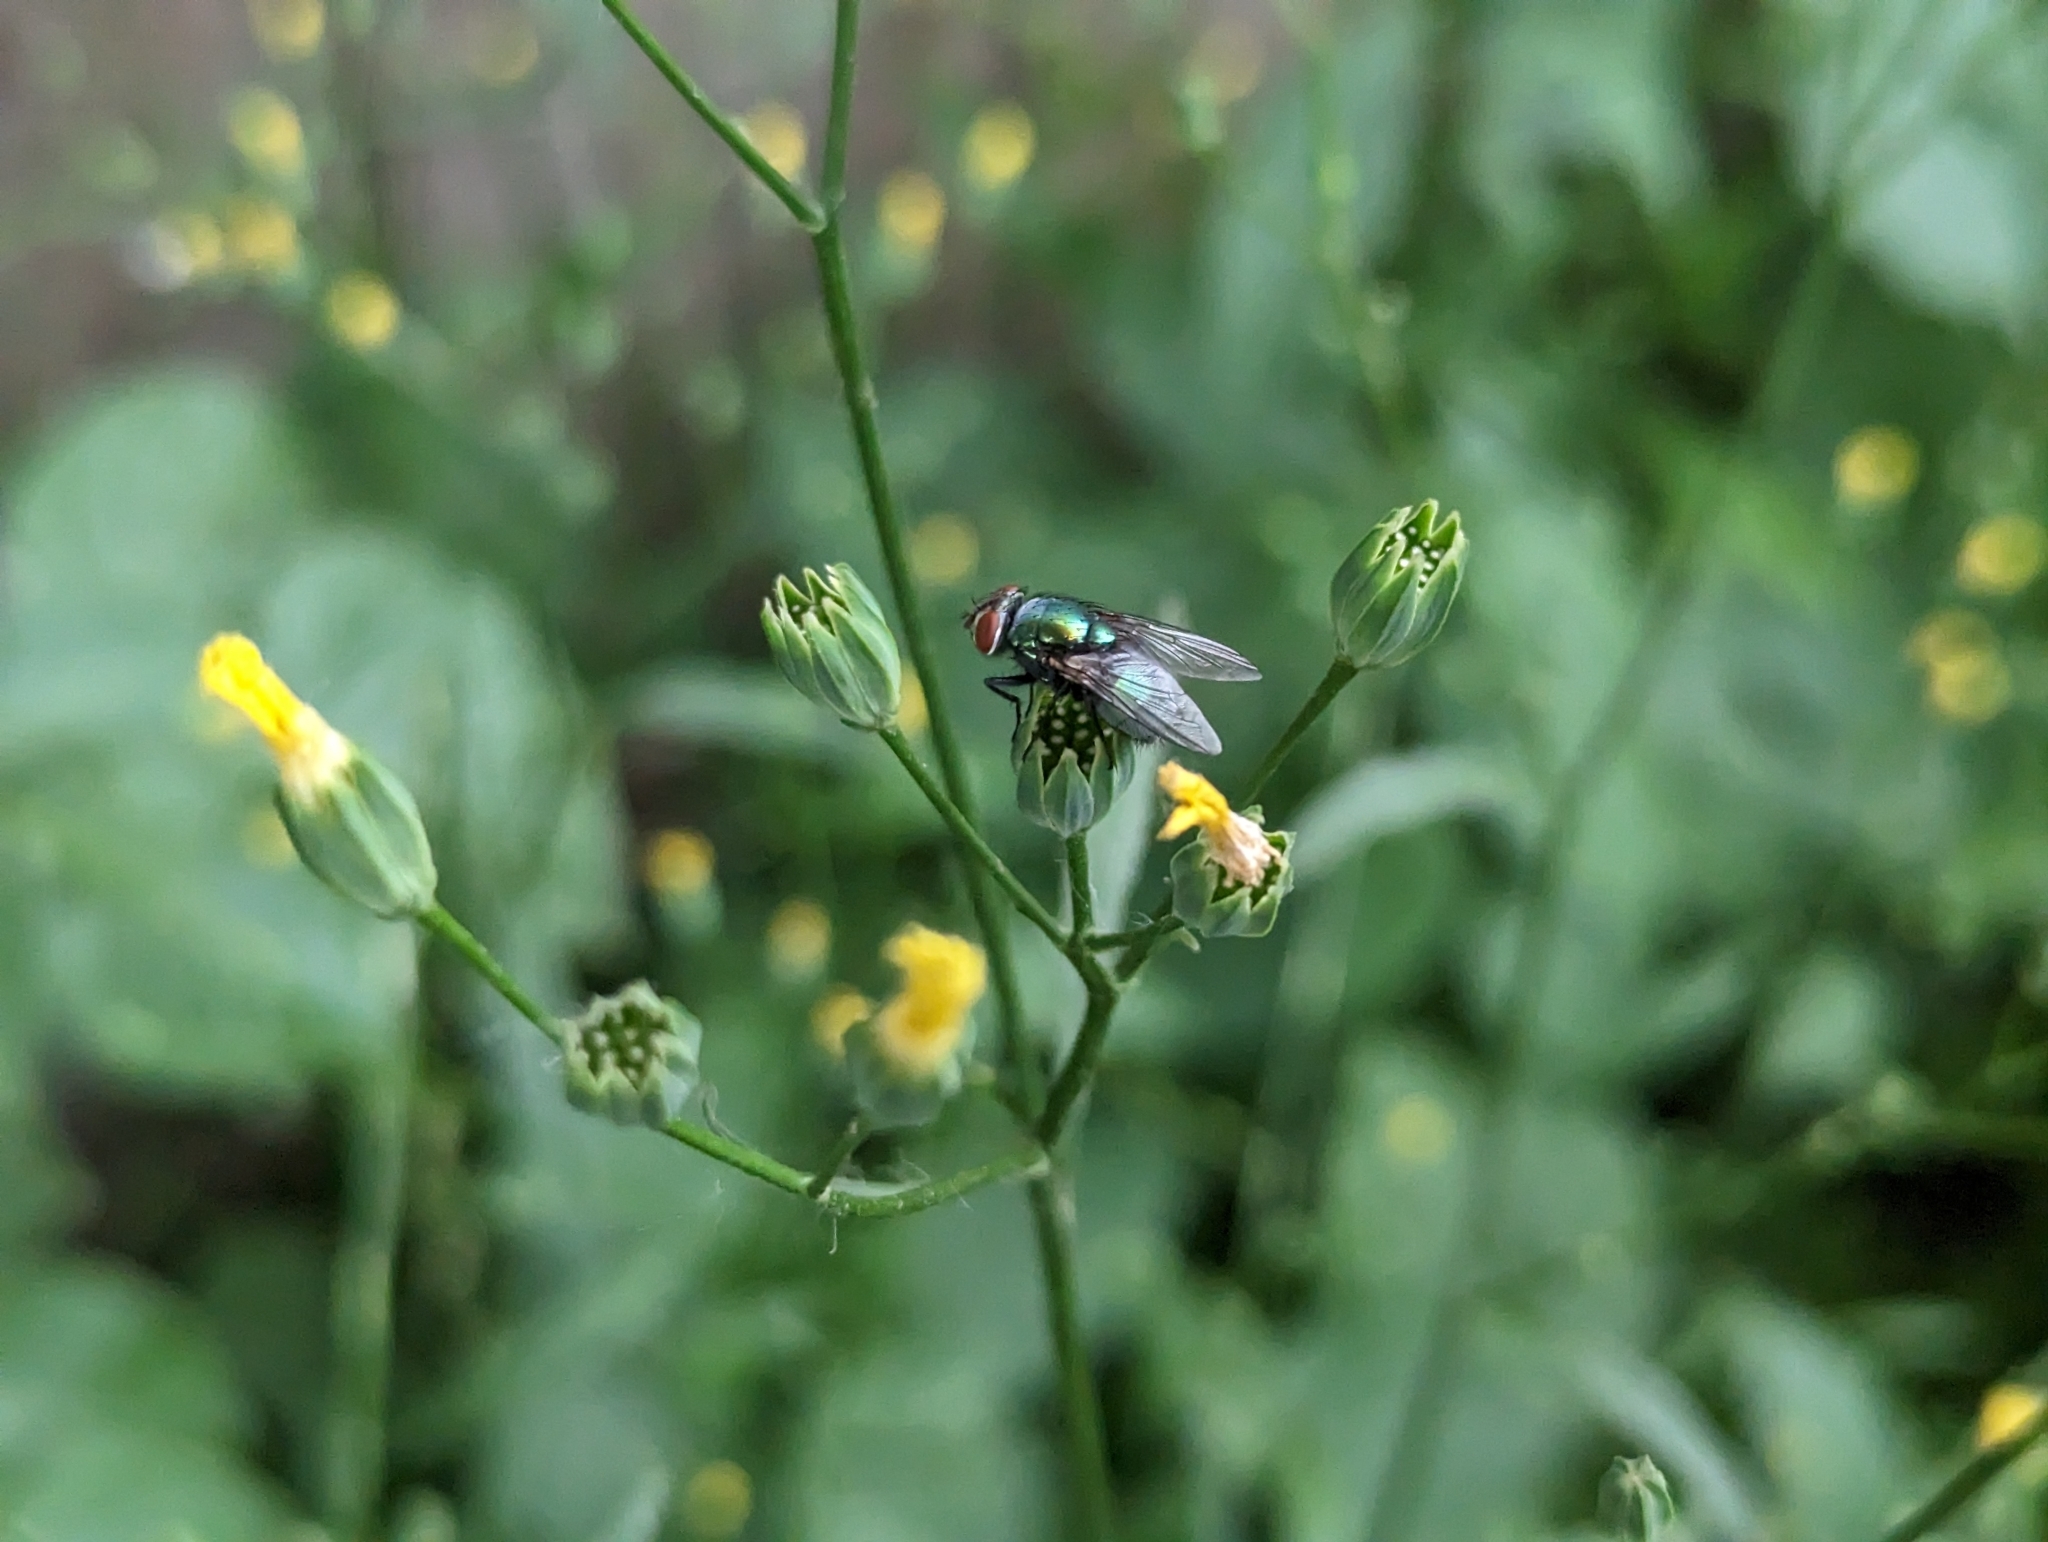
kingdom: Animalia
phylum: Arthropoda
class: Insecta
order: Diptera
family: Calliphoridae
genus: Lucilia
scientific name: Lucilia sericata
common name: Blow fly
